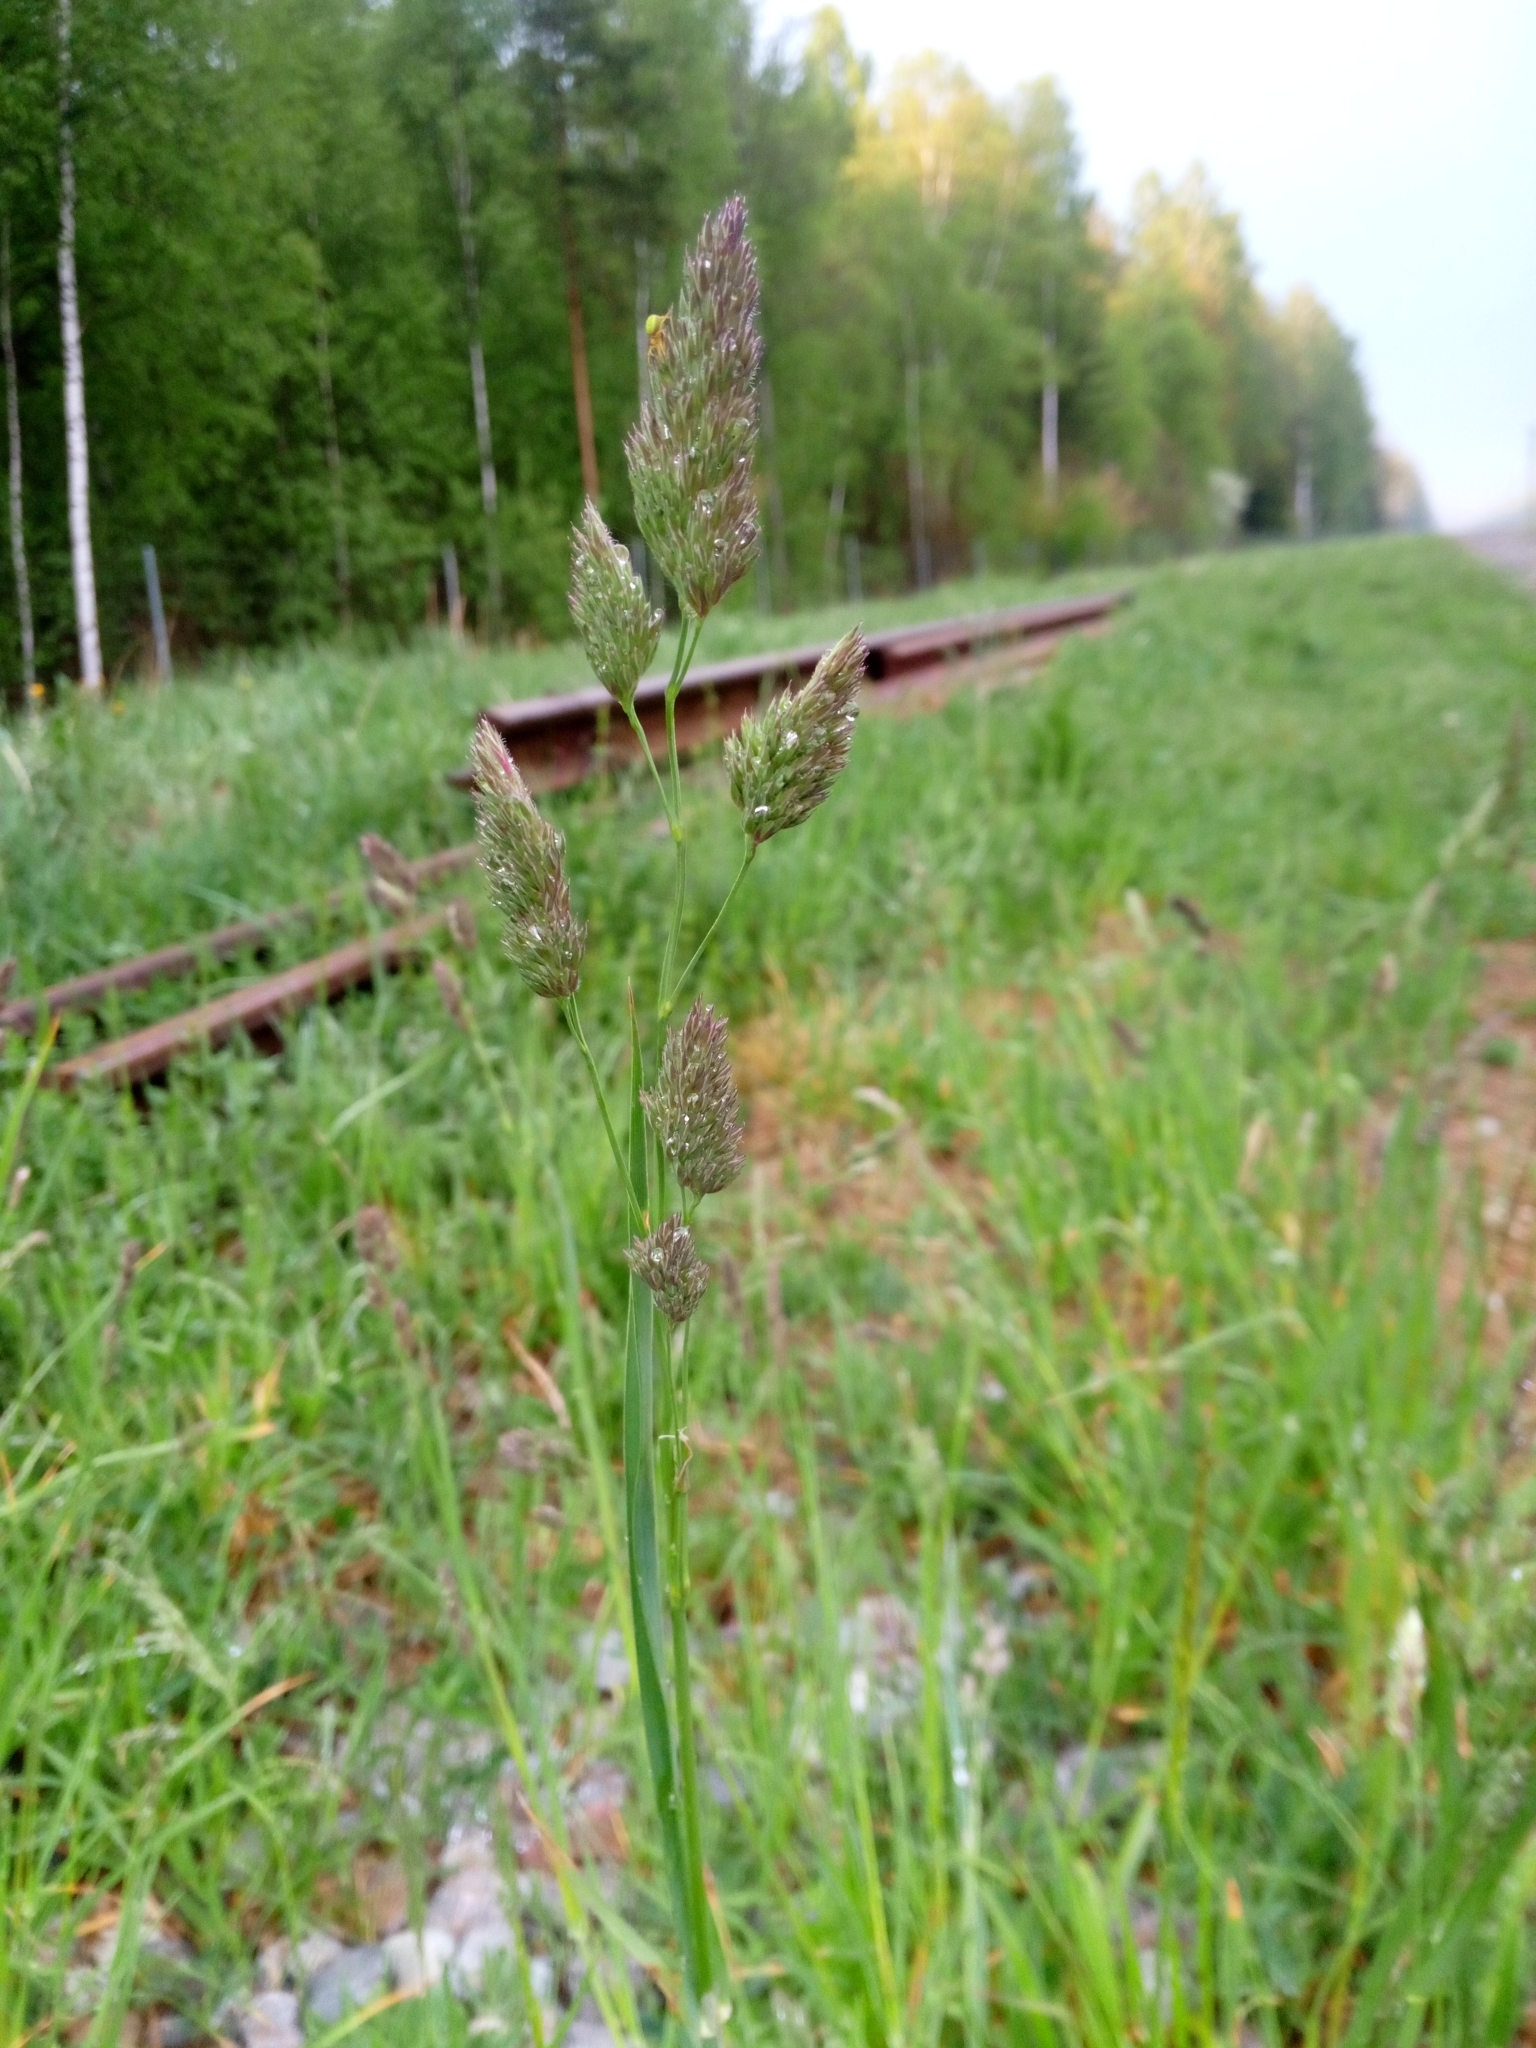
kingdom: Plantae
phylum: Tracheophyta
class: Liliopsida
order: Poales
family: Poaceae
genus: Dactylis
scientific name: Dactylis glomerata
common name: Orchardgrass
